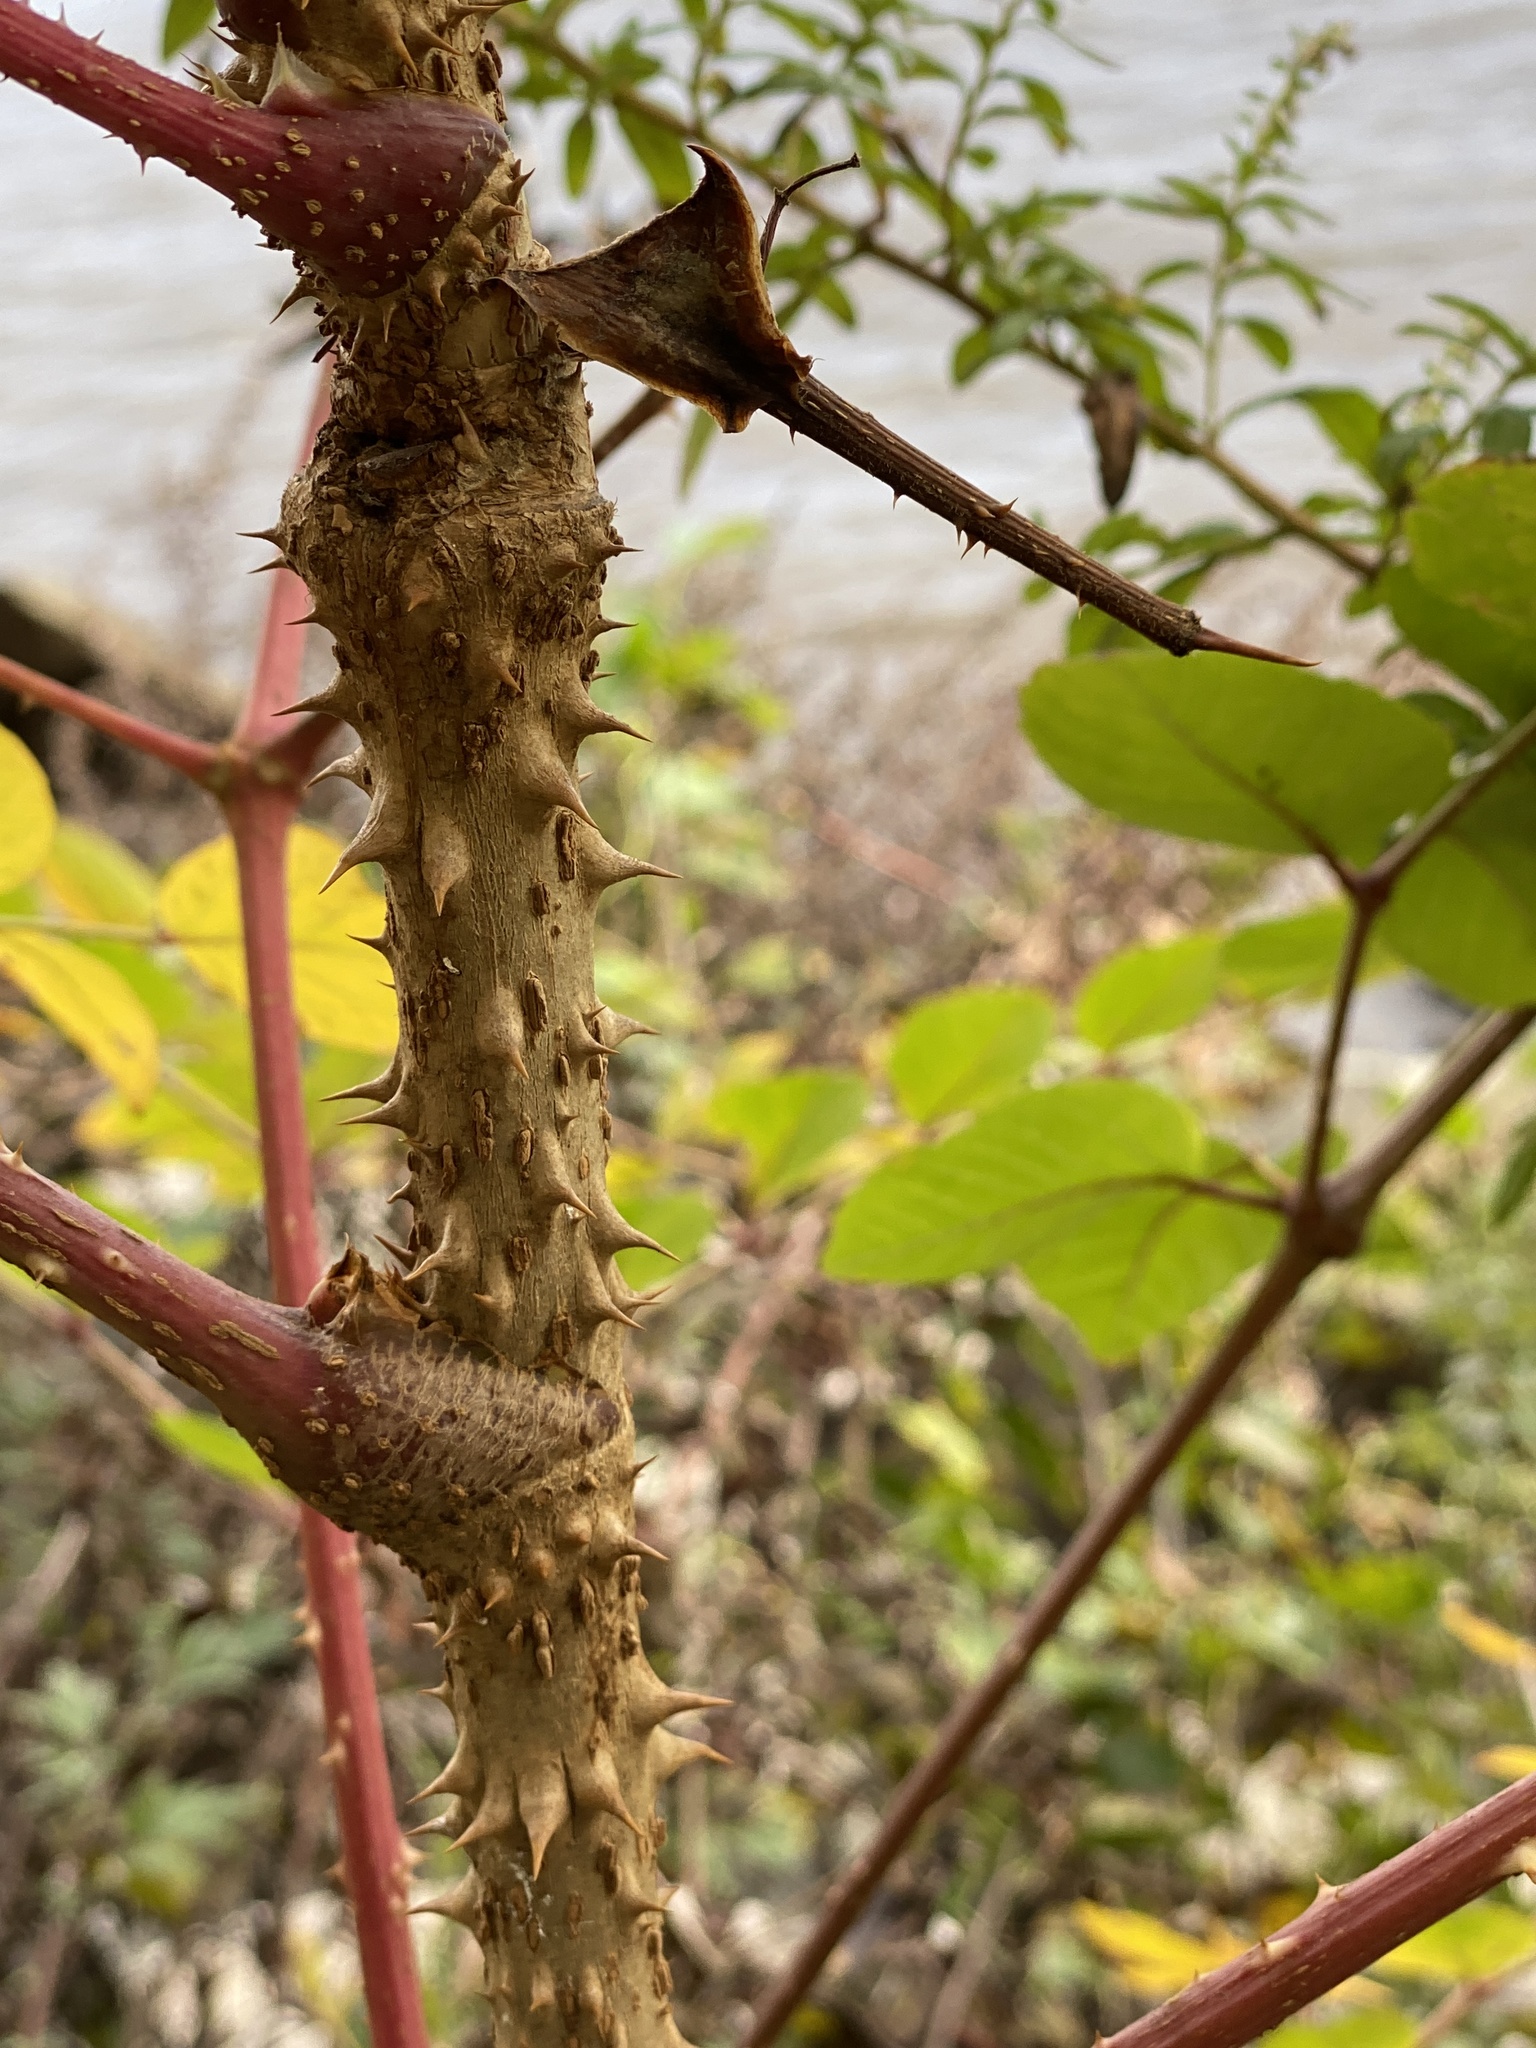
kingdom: Plantae
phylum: Tracheophyta
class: Magnoliopsida
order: Apiales
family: Araliaceae
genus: Aralia
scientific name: Aralia elata
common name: Japanese angelica-tree
